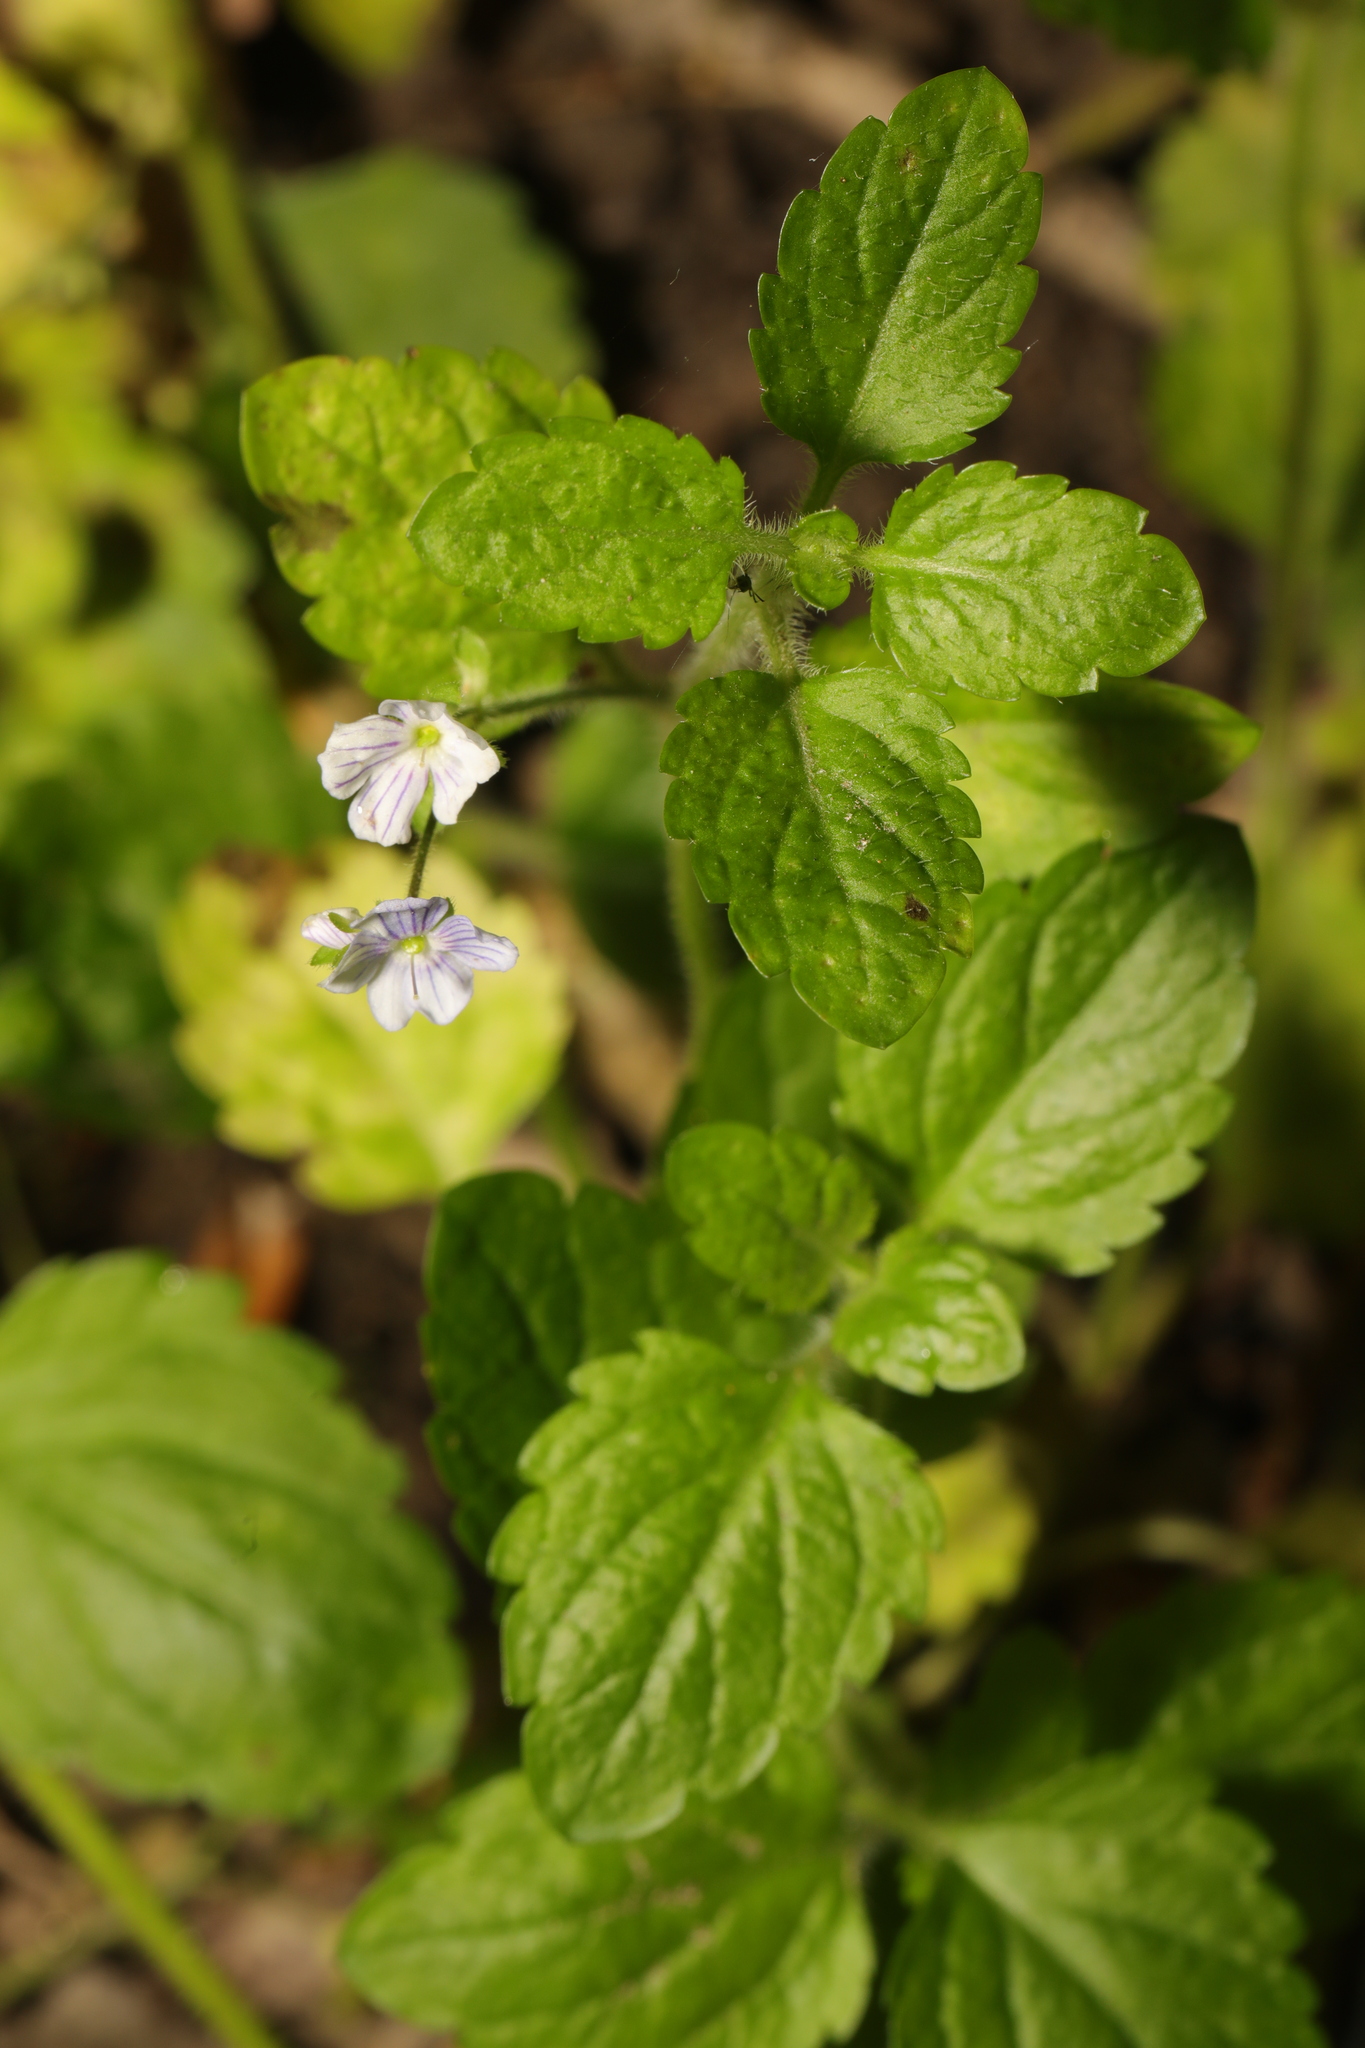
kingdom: Plantae
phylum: Tracheophyta
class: Magnoliopsida
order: Lamiales
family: Plantaginaceae
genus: Veronica
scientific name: Veronica montana
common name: Wood speedwell
